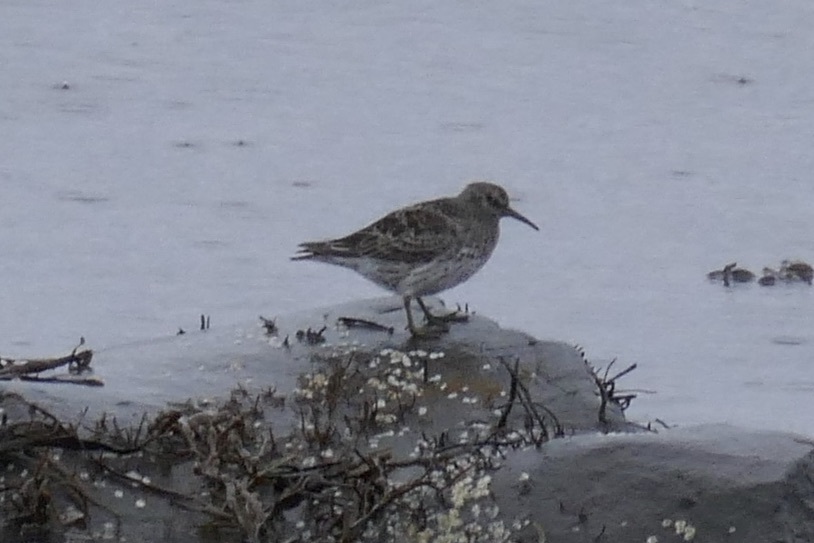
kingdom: Animalia
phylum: Chordata
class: Aves
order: Charadriiformes
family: Scolopacidae
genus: Calidris
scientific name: Calidris maritima
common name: Purple sandpiper
